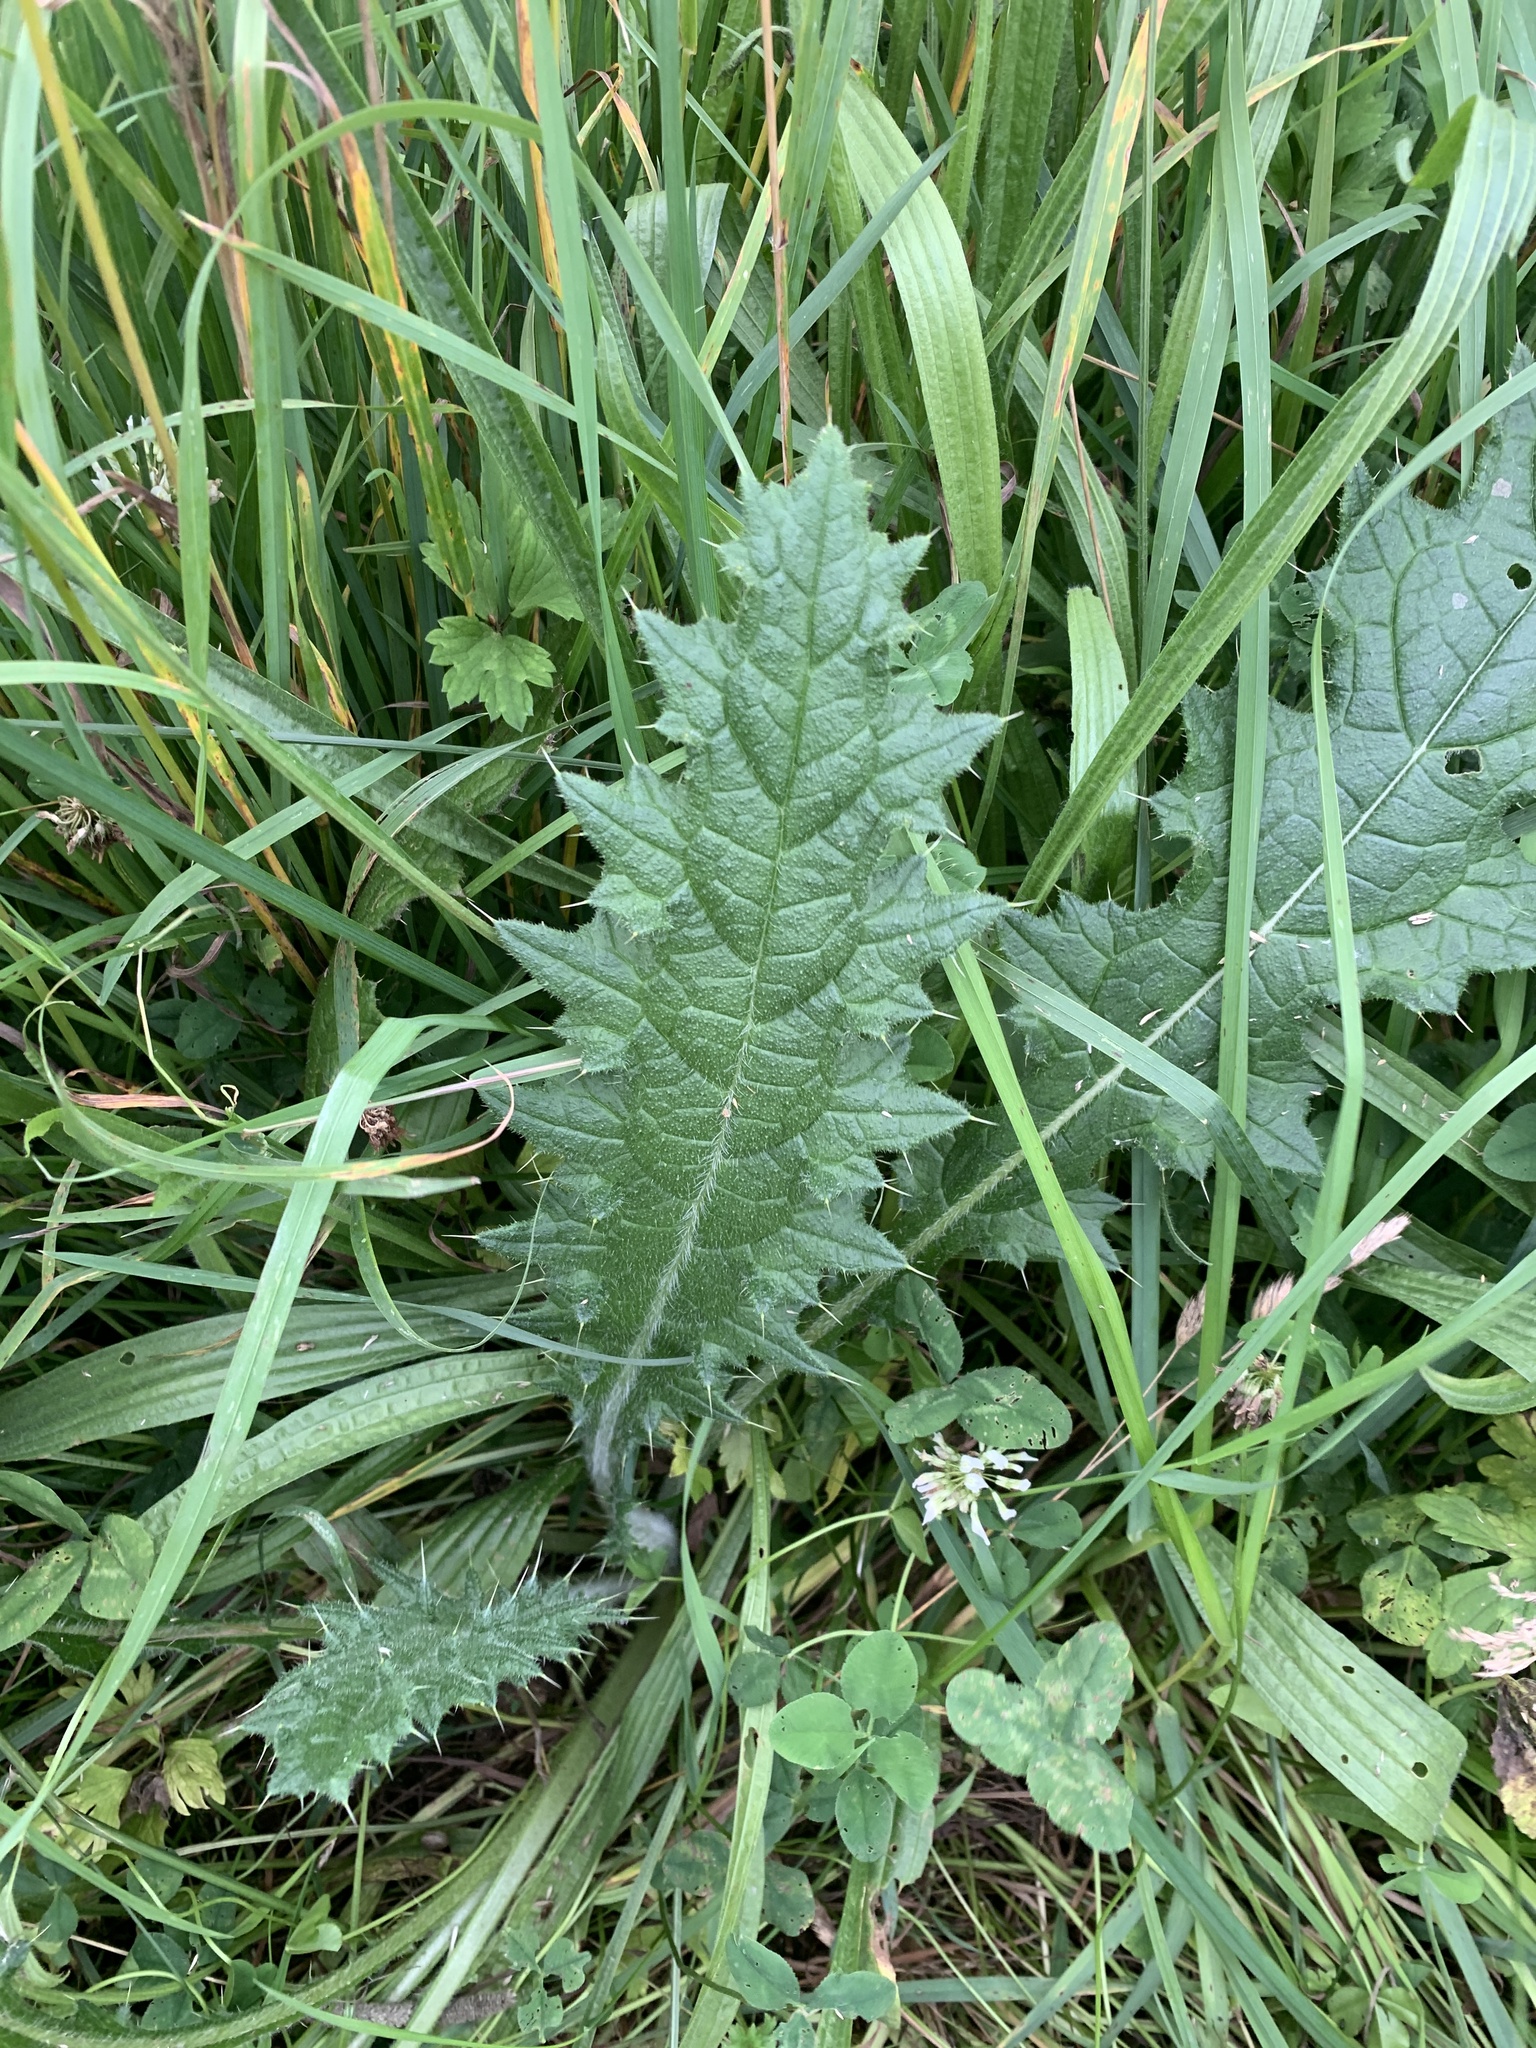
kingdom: Plantae
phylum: Tracheophyta
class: Magnoliopsida
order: Asterales
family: Asteraceae
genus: Cirsium
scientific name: Cirsium vulgare
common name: Bull thistle
